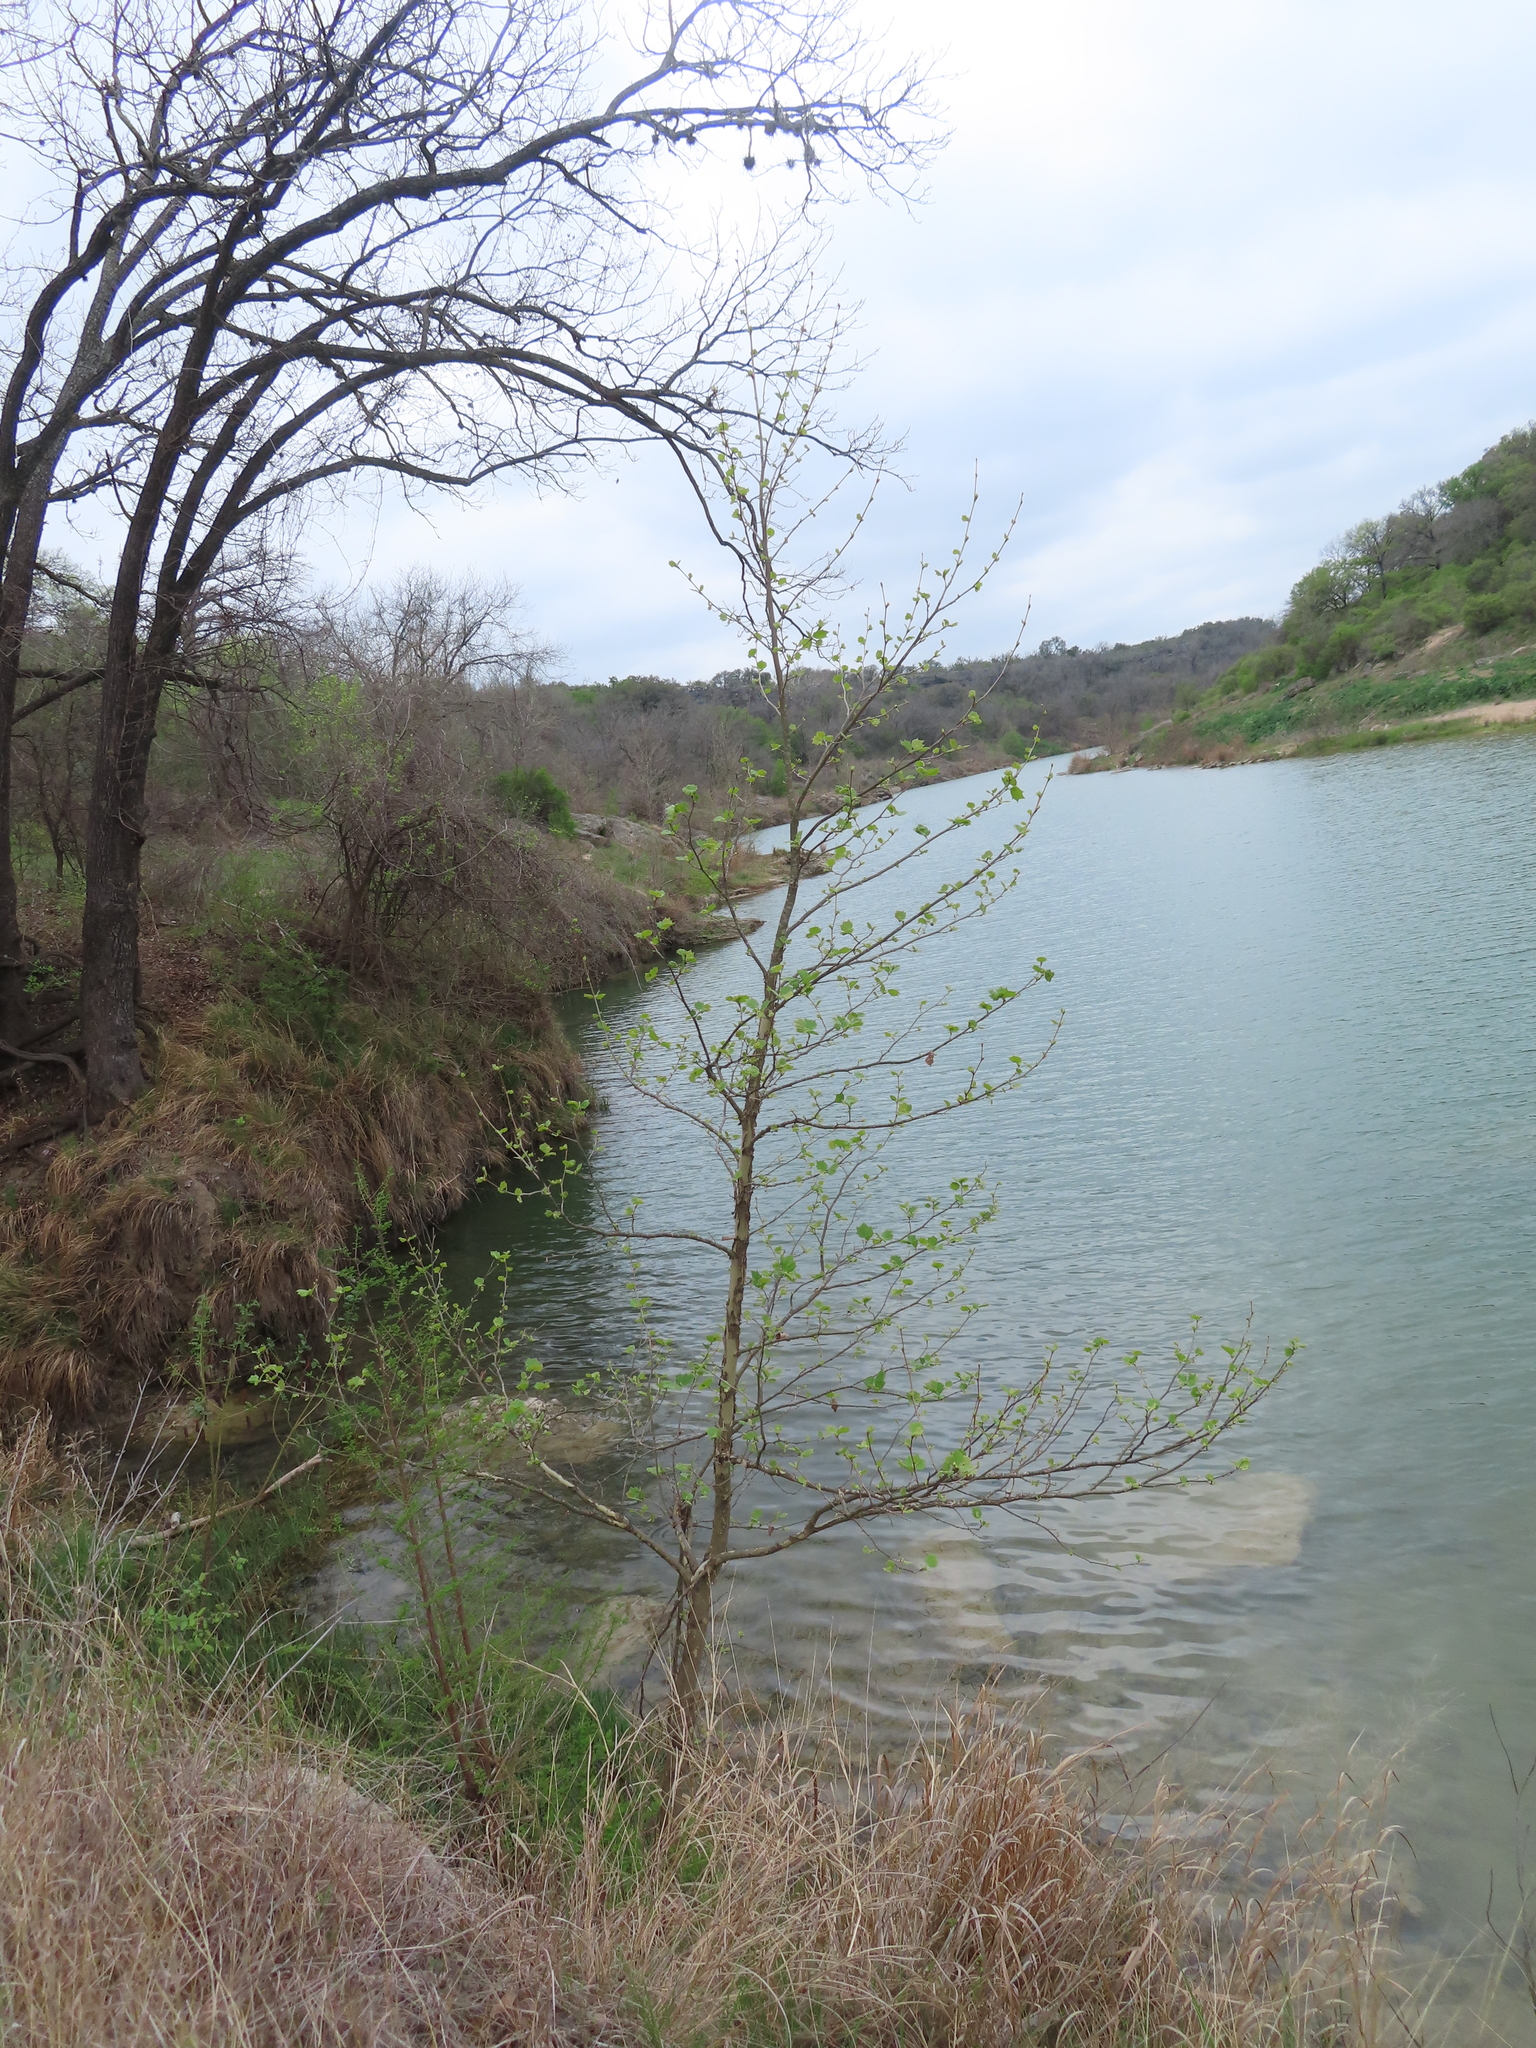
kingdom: Plantae
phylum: Tracheophyta
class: Magnoliopsida
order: Proteales
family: Platanaceae
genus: Platanus
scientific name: Platanus occidentalis
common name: American sycamore
